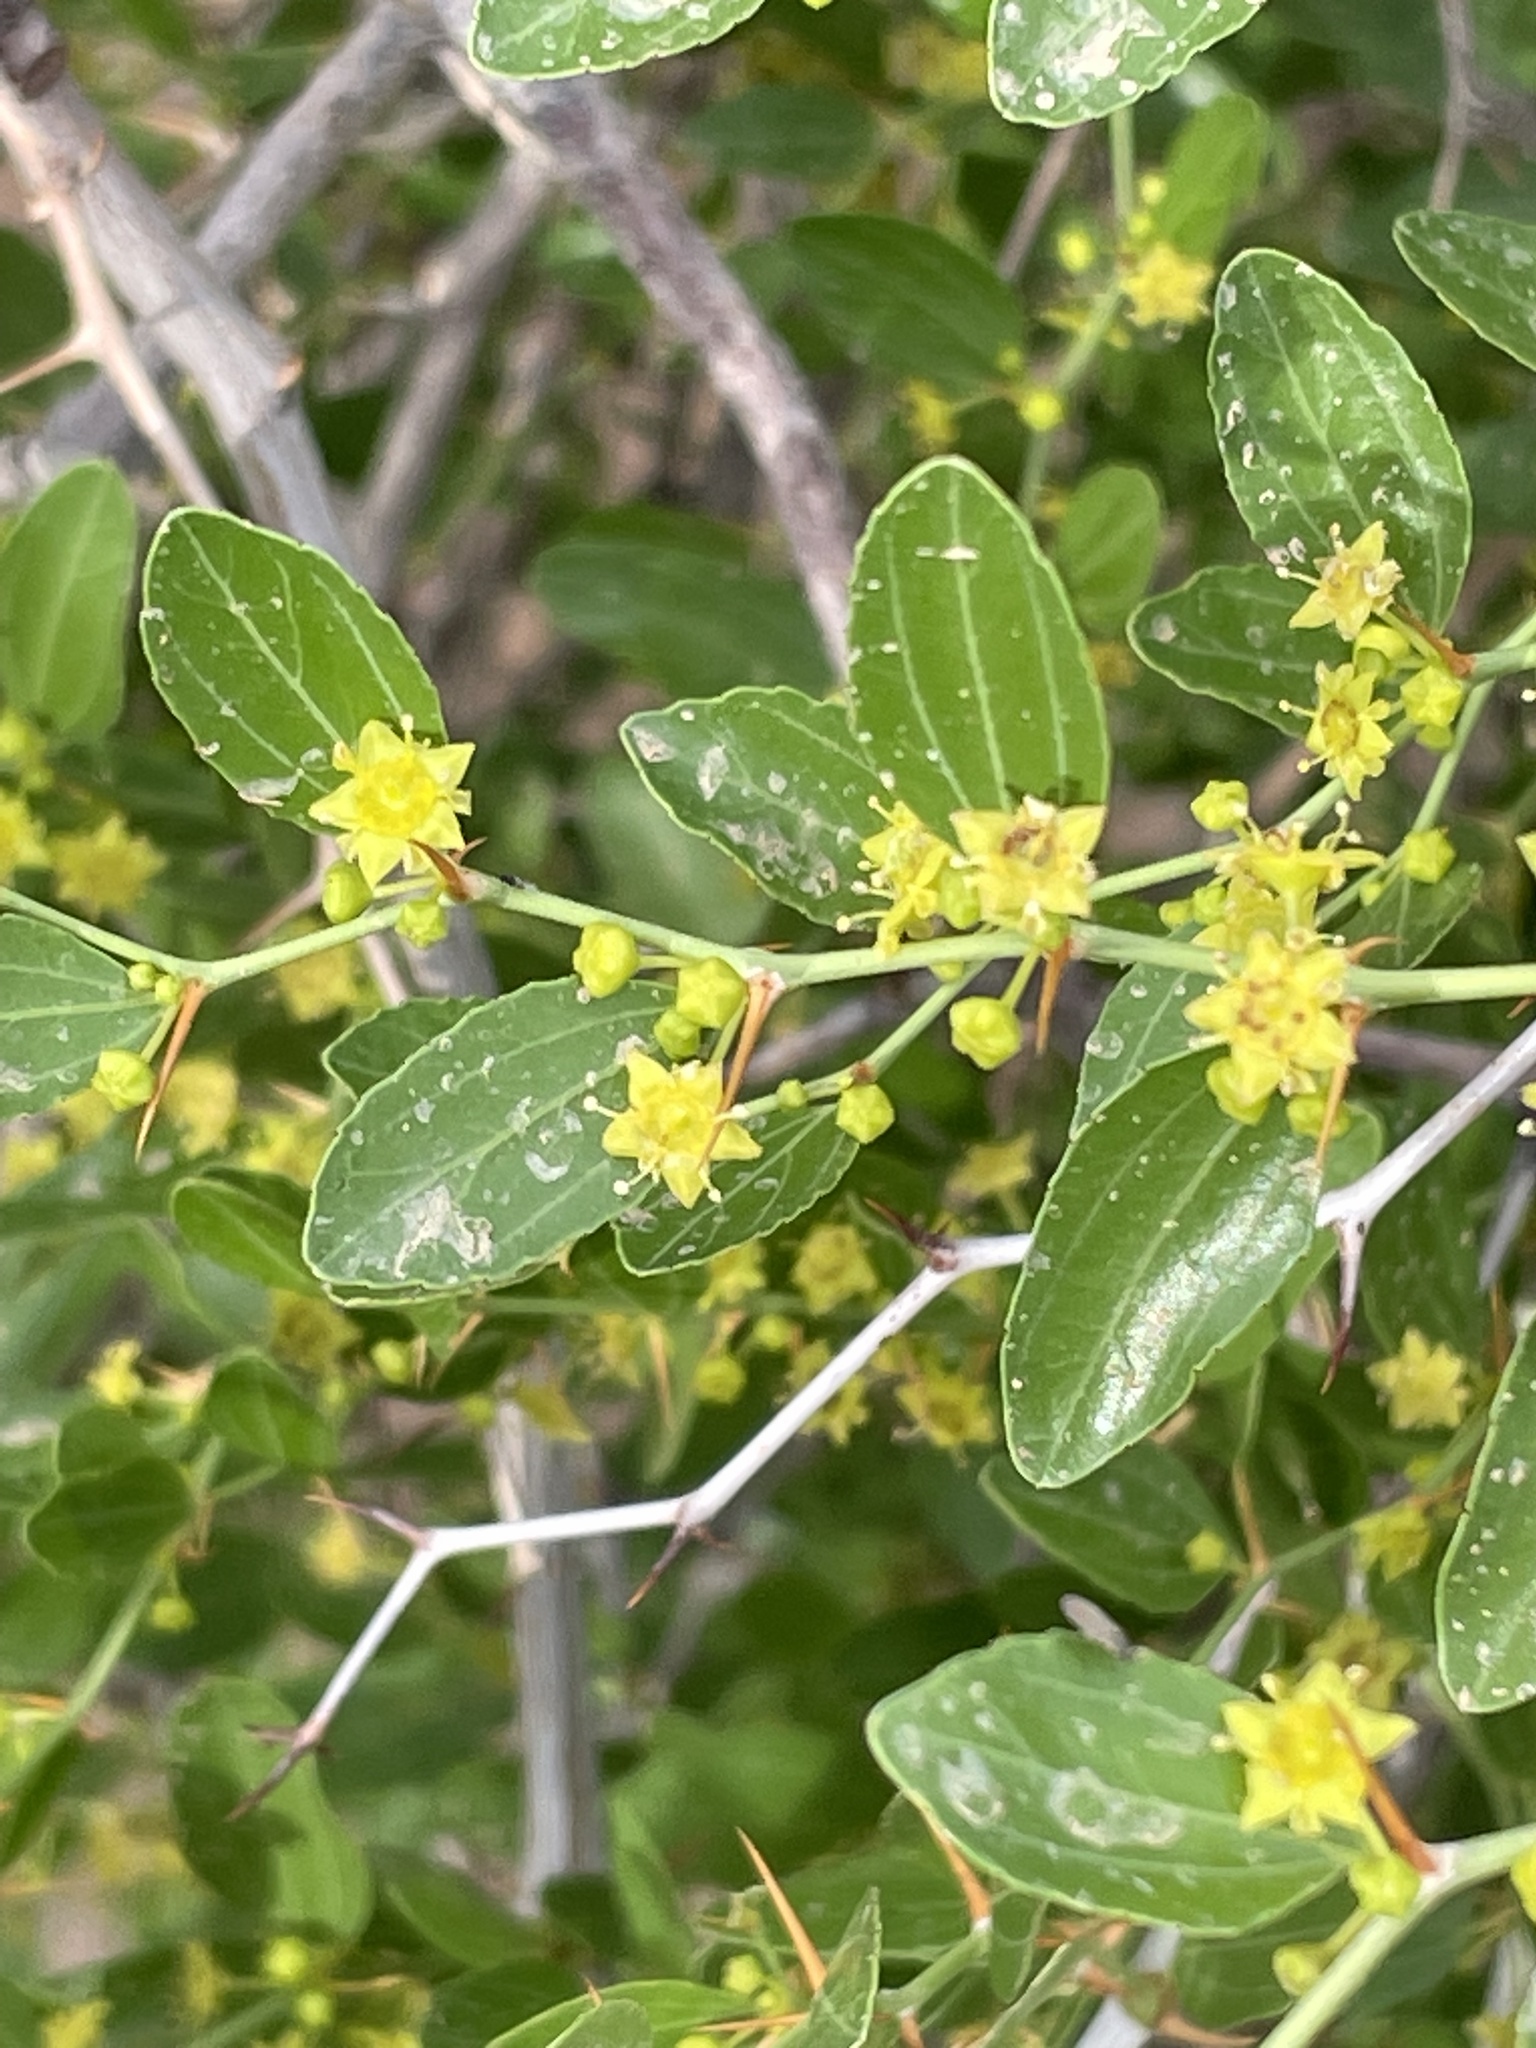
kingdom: Plantae
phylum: Tracheophyta
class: Magnoliopsida
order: Rosales
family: Rhamnaceae
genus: Ziziphus
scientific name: Ziziphus lotus
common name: Lotus
